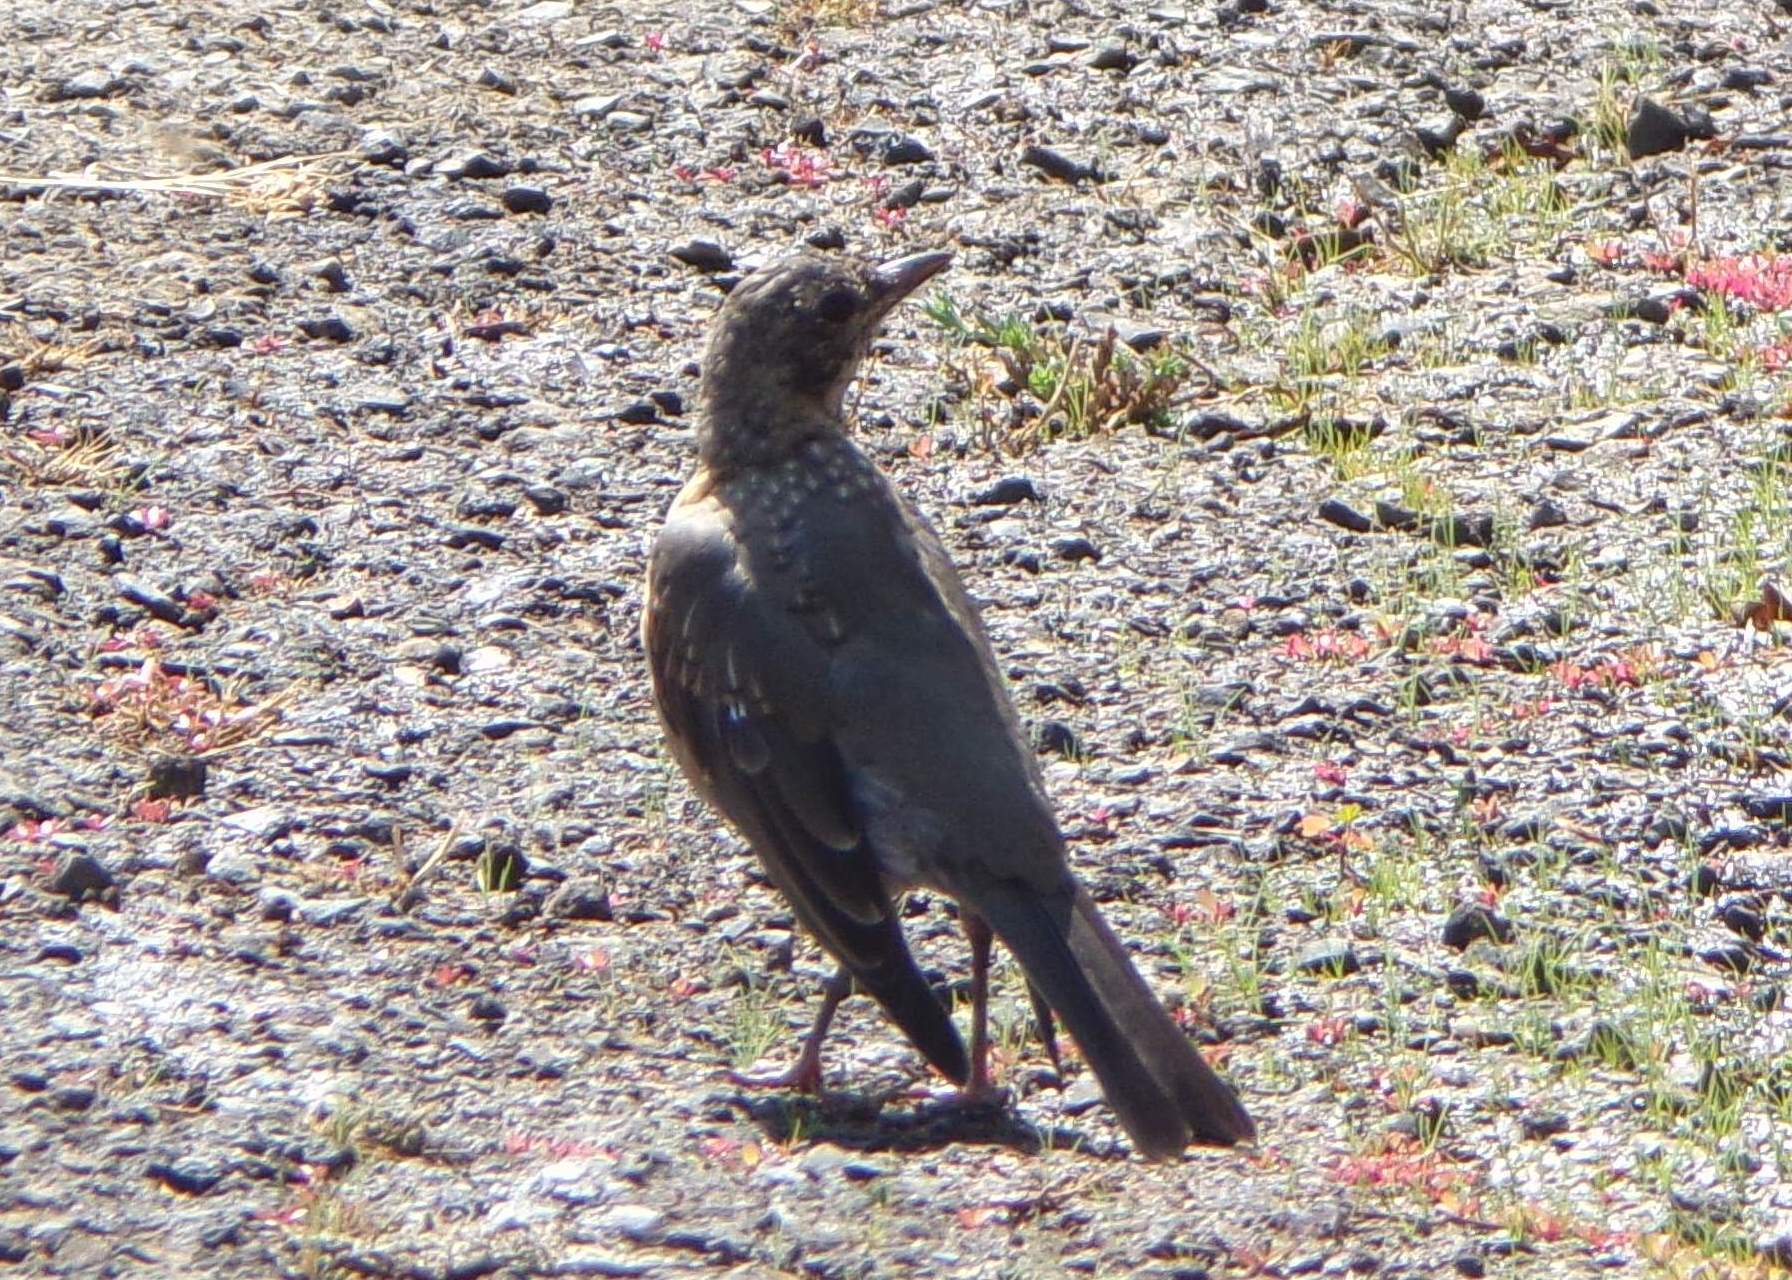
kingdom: Animalia
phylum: Chordata
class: Aves
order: Passeriformes
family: Turdidae
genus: Turdus
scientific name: Turdus migratorius
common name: American robin
